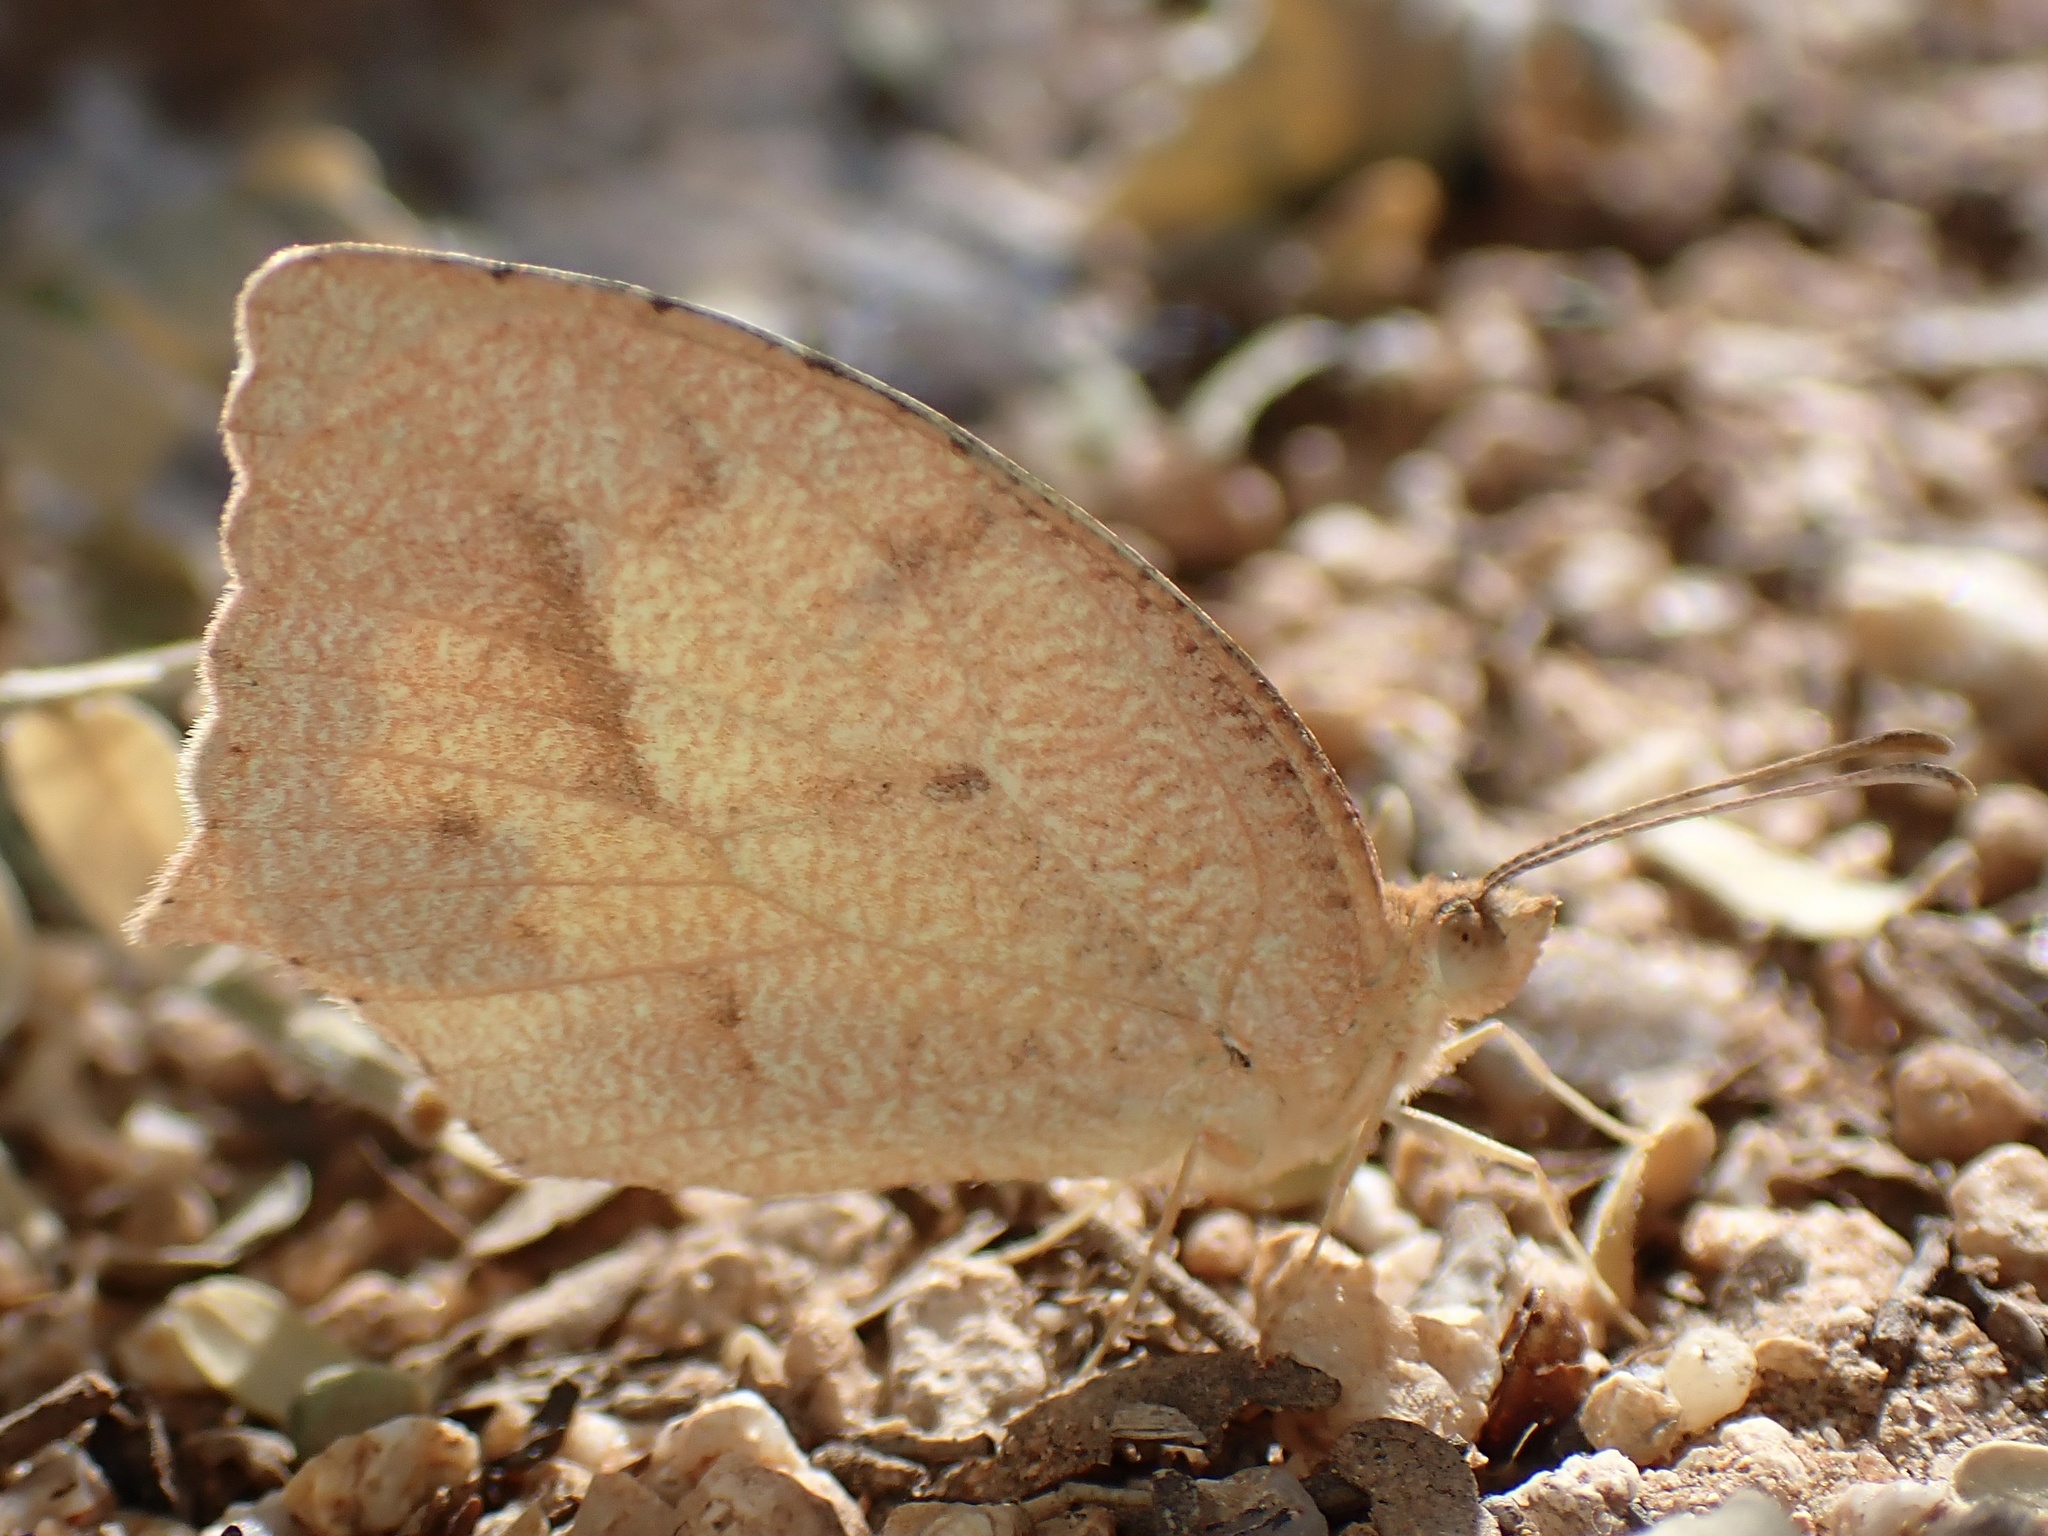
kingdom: Animalia
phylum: Arthropoda
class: Insecta
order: Lepidoptera
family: Pieridae
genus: Abaeis
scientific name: Abaeis mexicana
